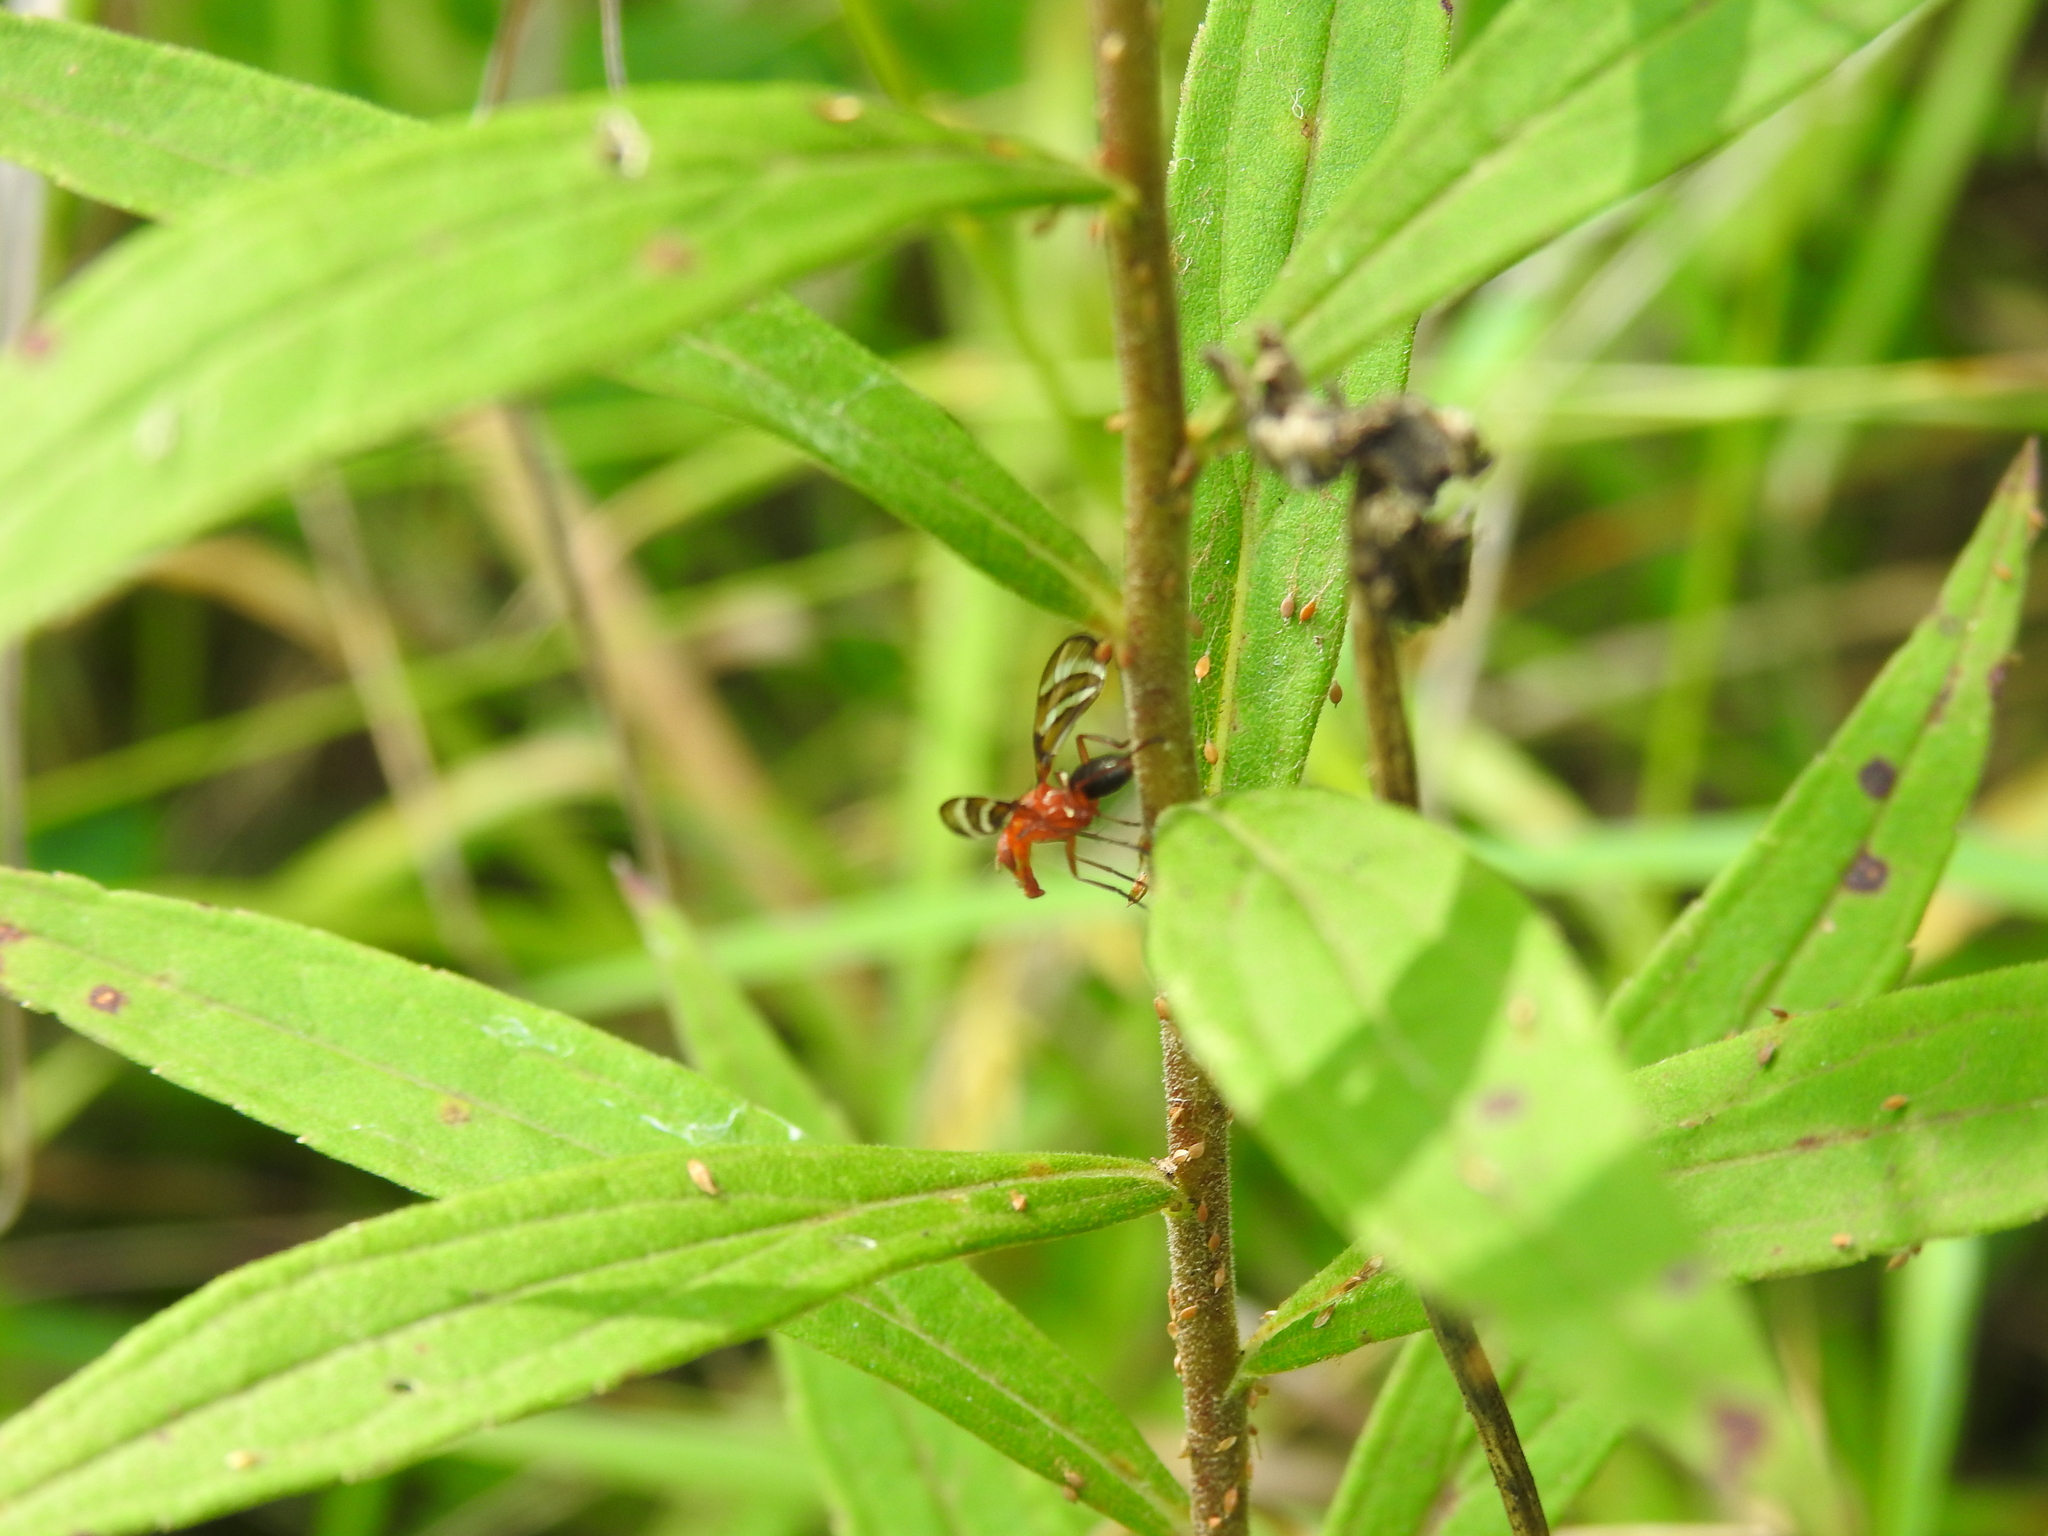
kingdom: Animalia
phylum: Arthropoda
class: Insecta
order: Diptera
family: Ulidiidae
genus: Tritoxa
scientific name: Tritoxa incurva
